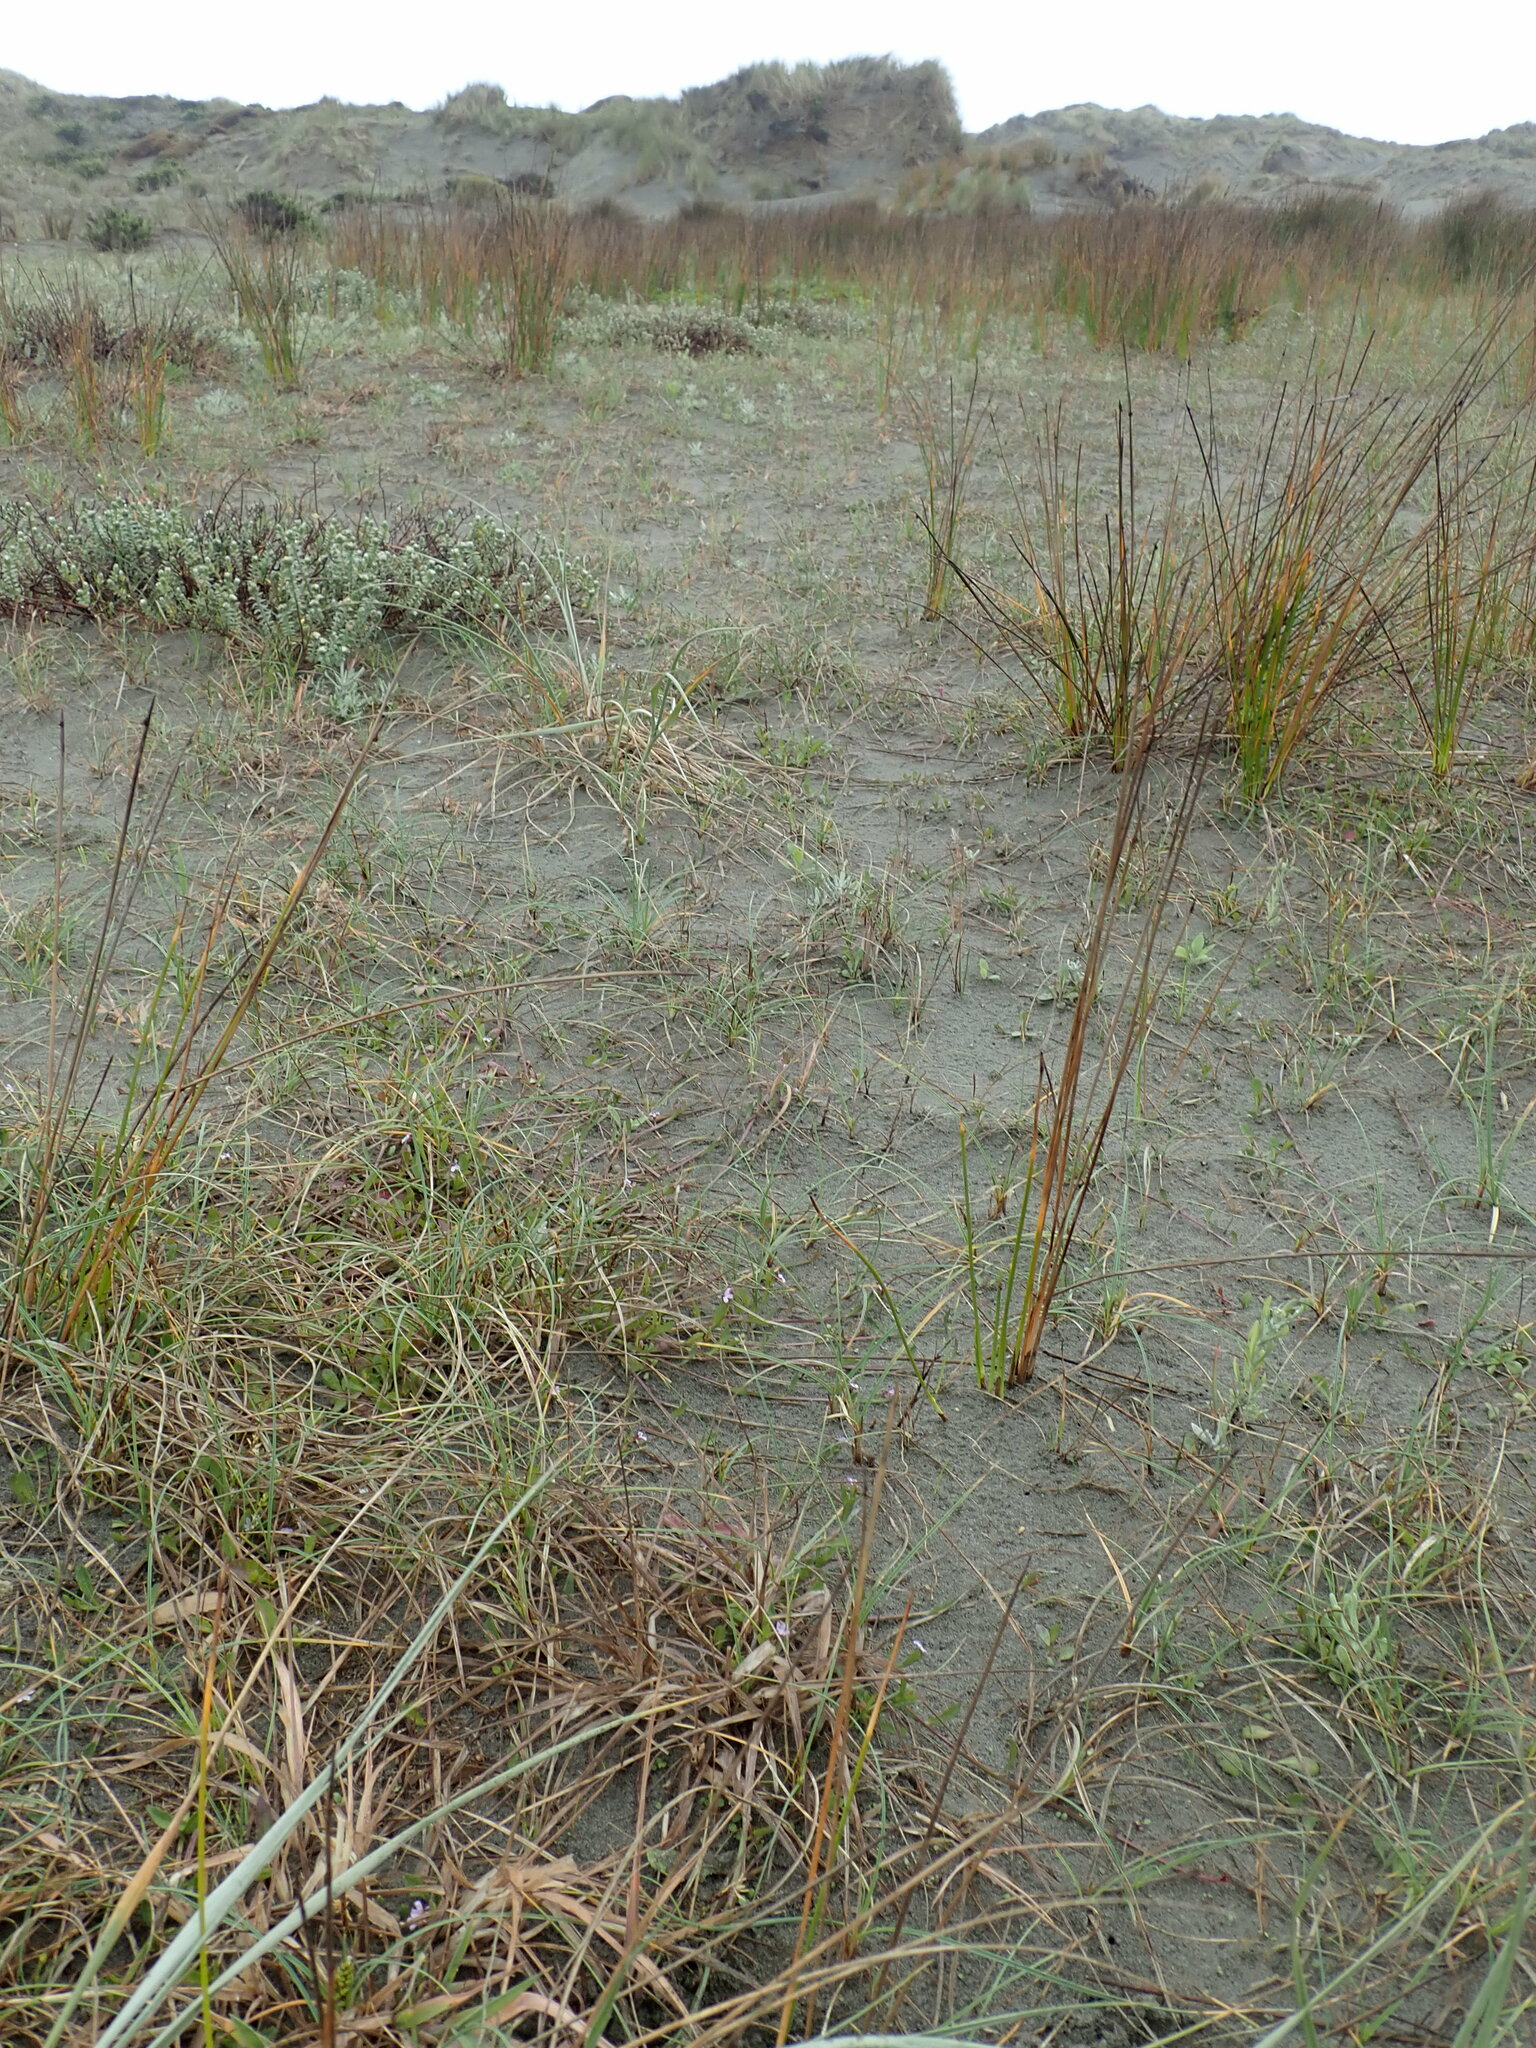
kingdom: Plantae
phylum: Tracheophyta
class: Magnoliopsida
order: Asterales
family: Campanulaceae
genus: Lobelia
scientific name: Lobelia anceps
